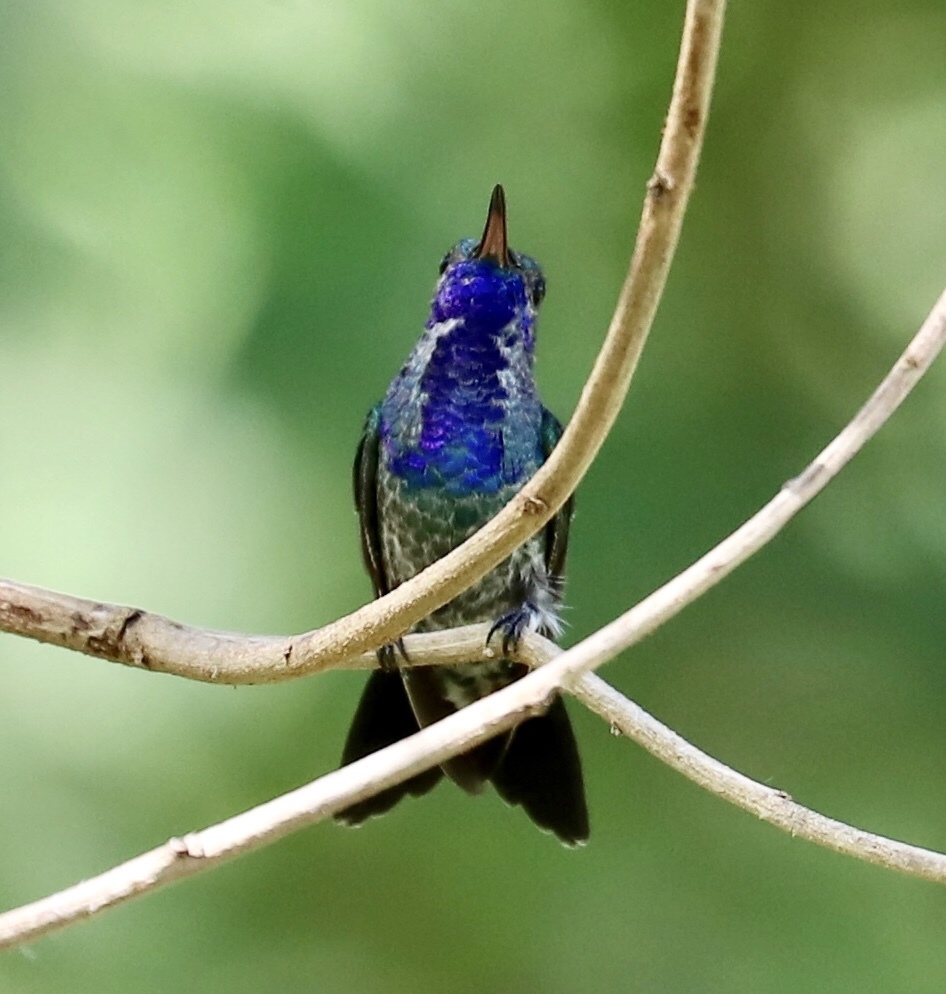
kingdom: Animalia
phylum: Chordata
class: Aves
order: Apodiformes
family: Trochilidae
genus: Chrysuronia
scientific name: Chrysuronia coeruleogularis
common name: Sapphire-throated hummingbird
